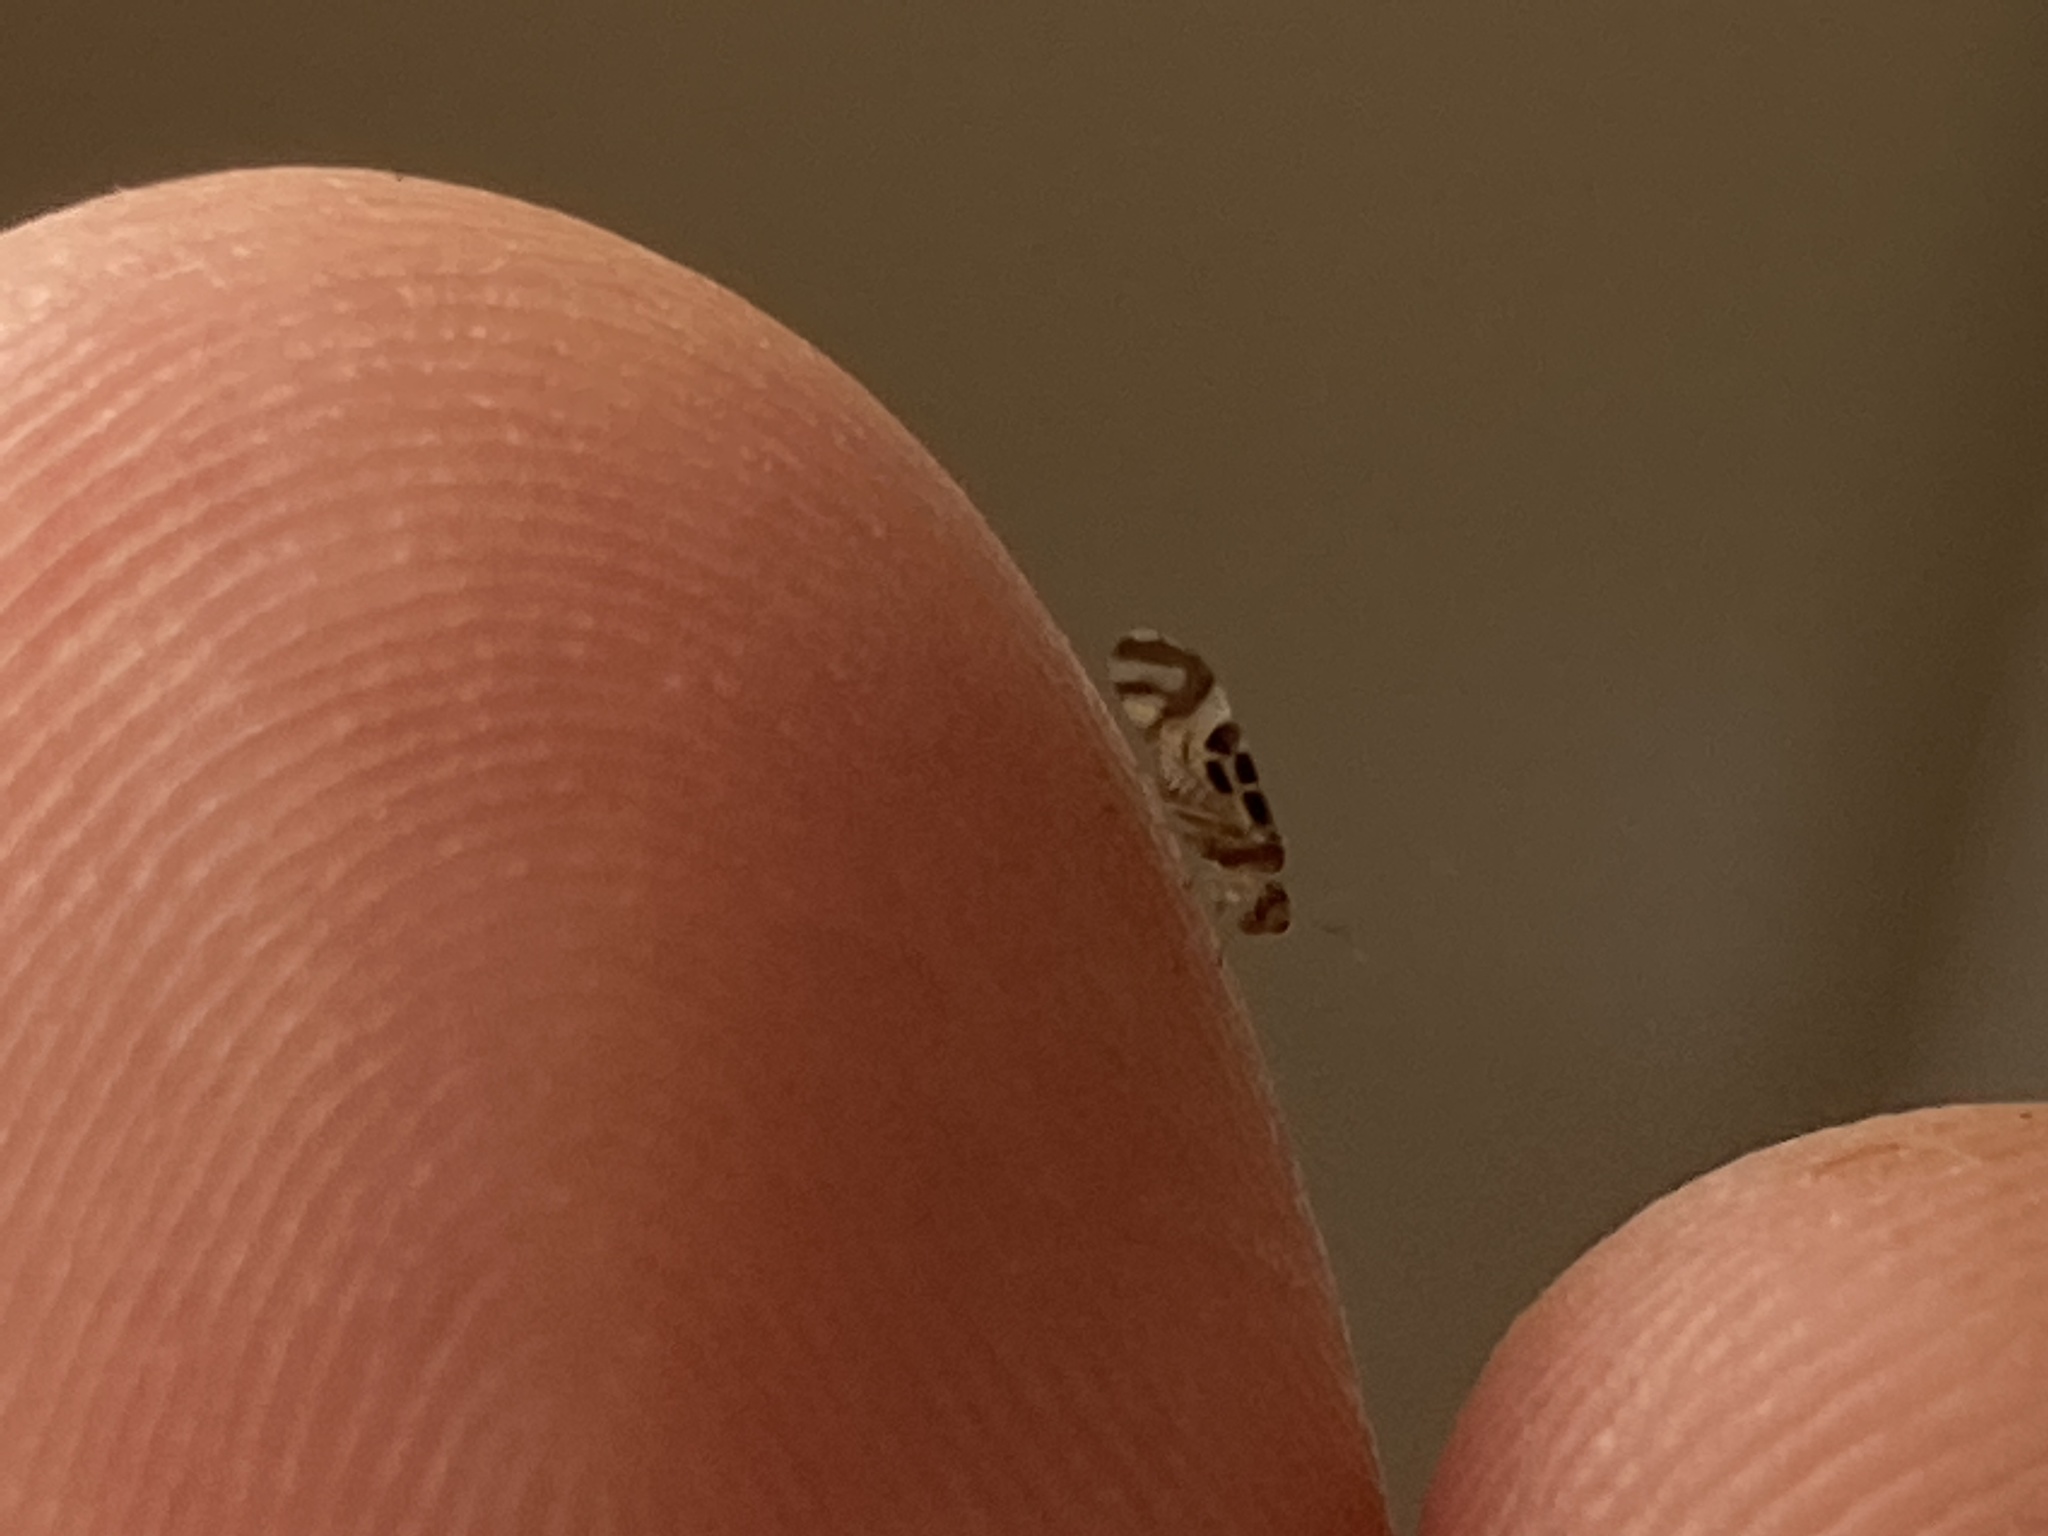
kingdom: Animalia
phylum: Arthropoda
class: Insecta
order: Psocodea
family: Stenopsocidae
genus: Graphopsocus
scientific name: Graphopsocus cruciatus
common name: Lizard bark louse
